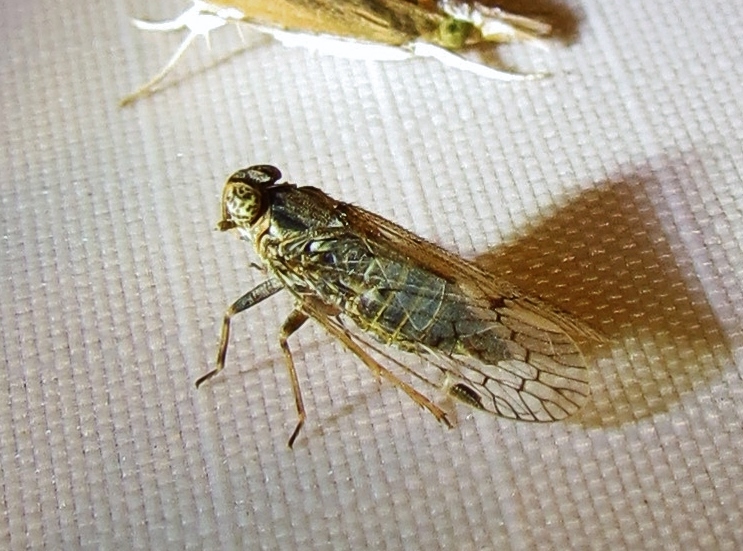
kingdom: Animalia
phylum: Arthropoda
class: Insecta
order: Hemiptera
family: Cixiidae
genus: Melanoliarus
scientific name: Melanoliarus aridus
